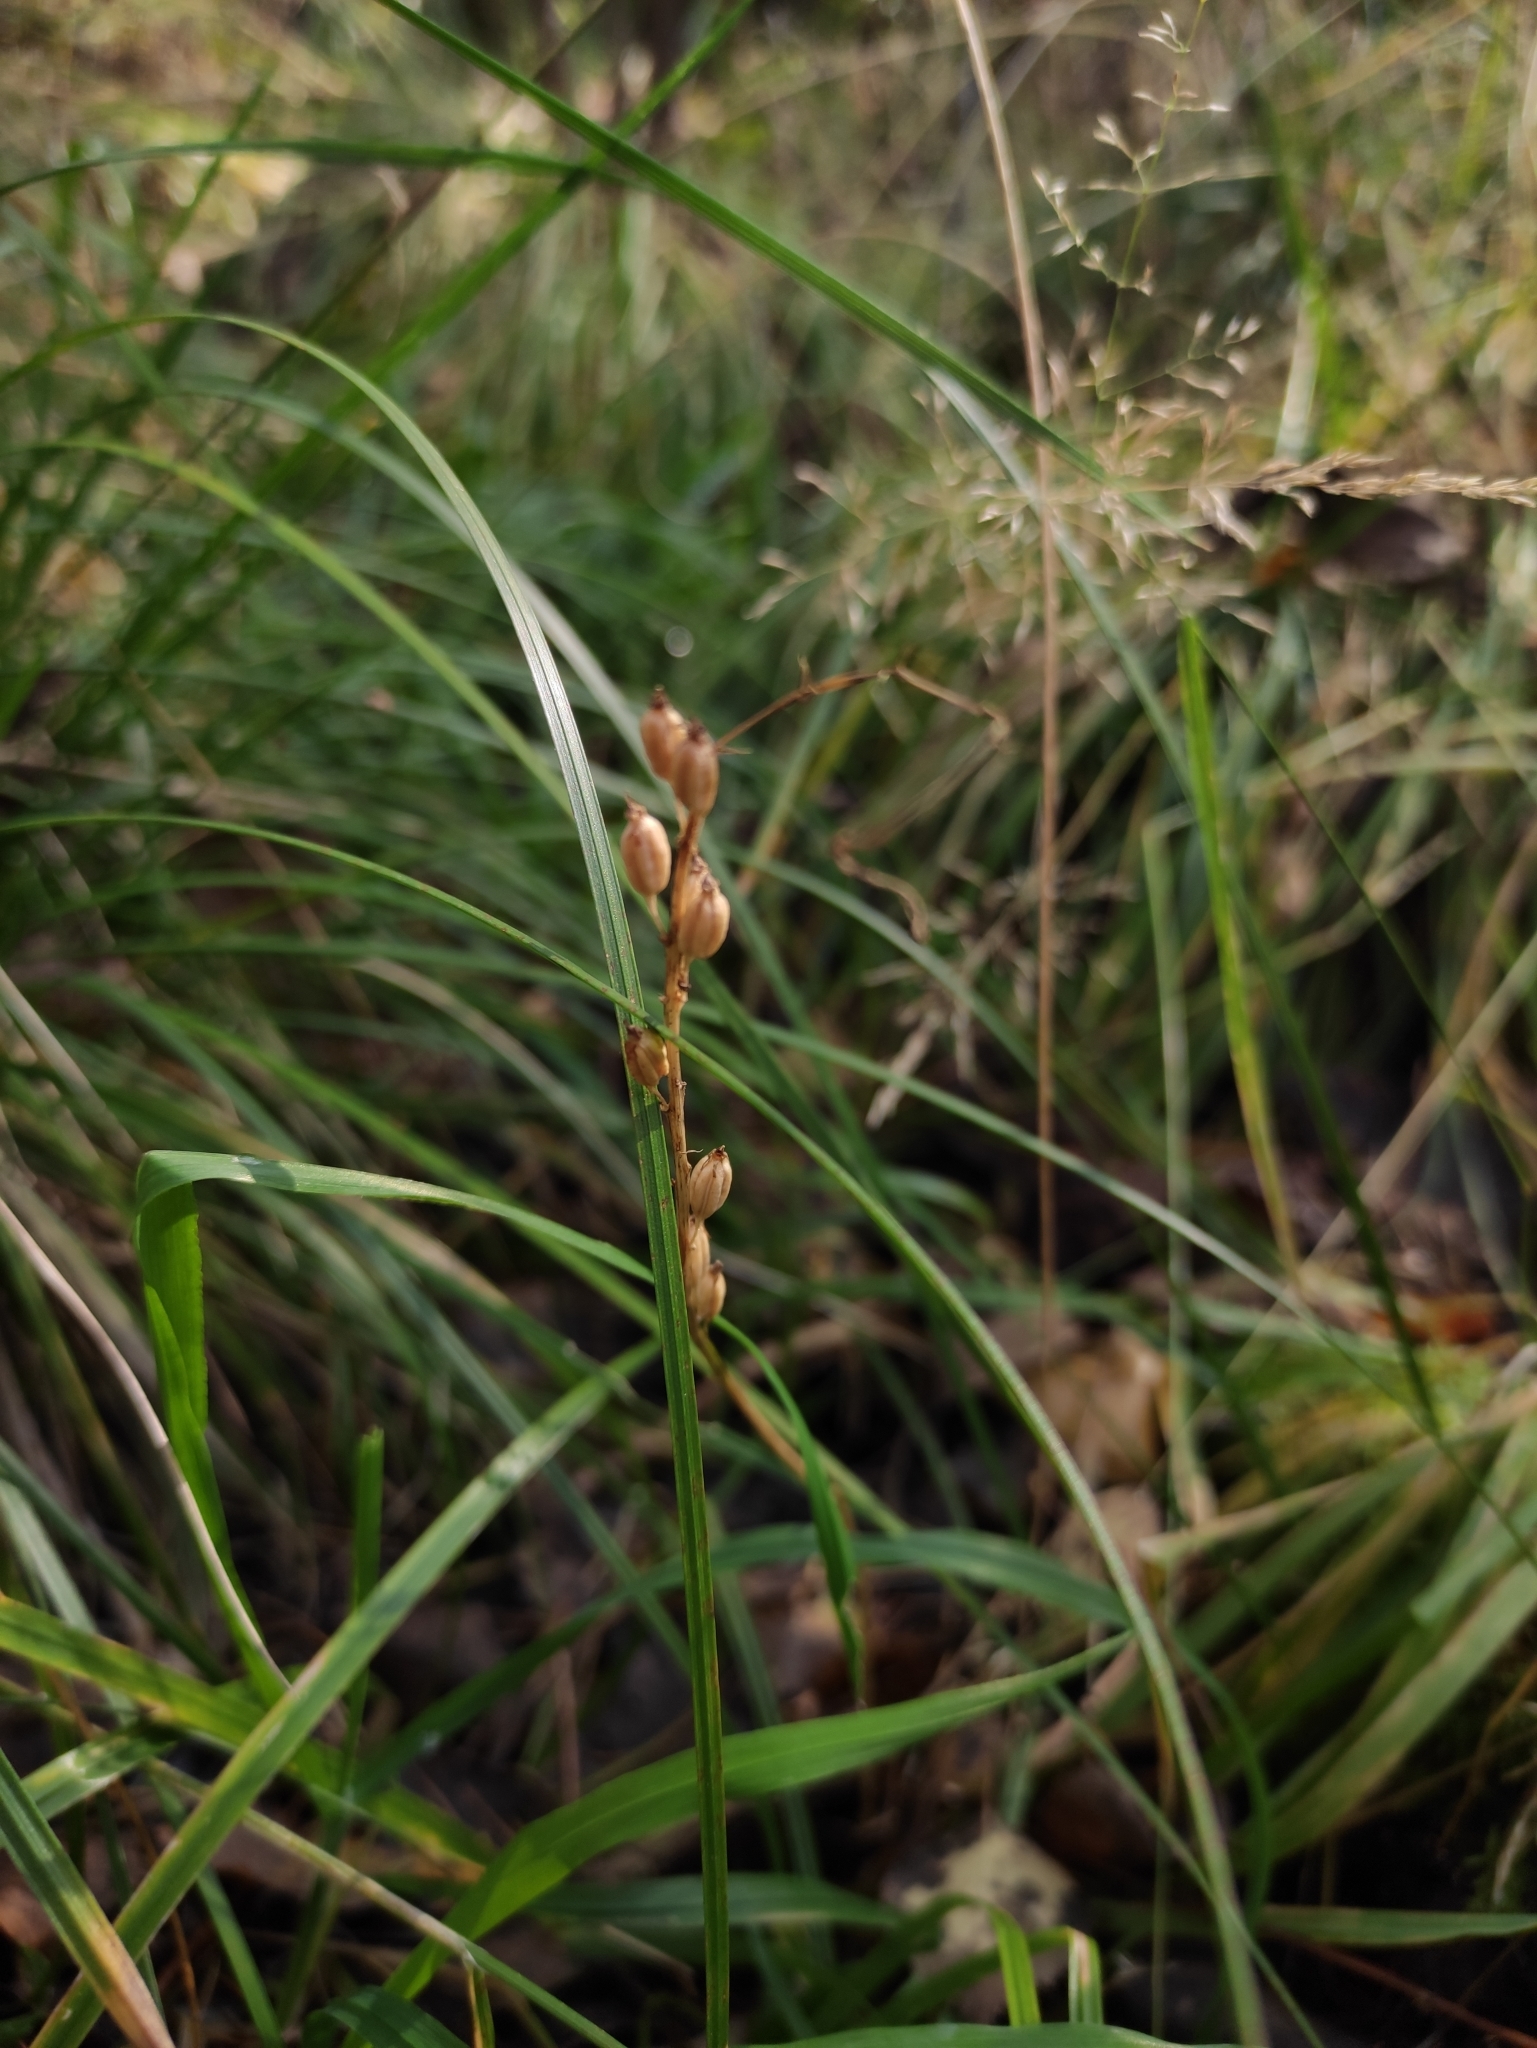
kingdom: Plantae
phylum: Tracheophyta
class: Liliopsida
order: Asparagales
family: Orchidaceae
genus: Malaxis
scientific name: Malaxis monophyllos
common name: White adder's-mouth
